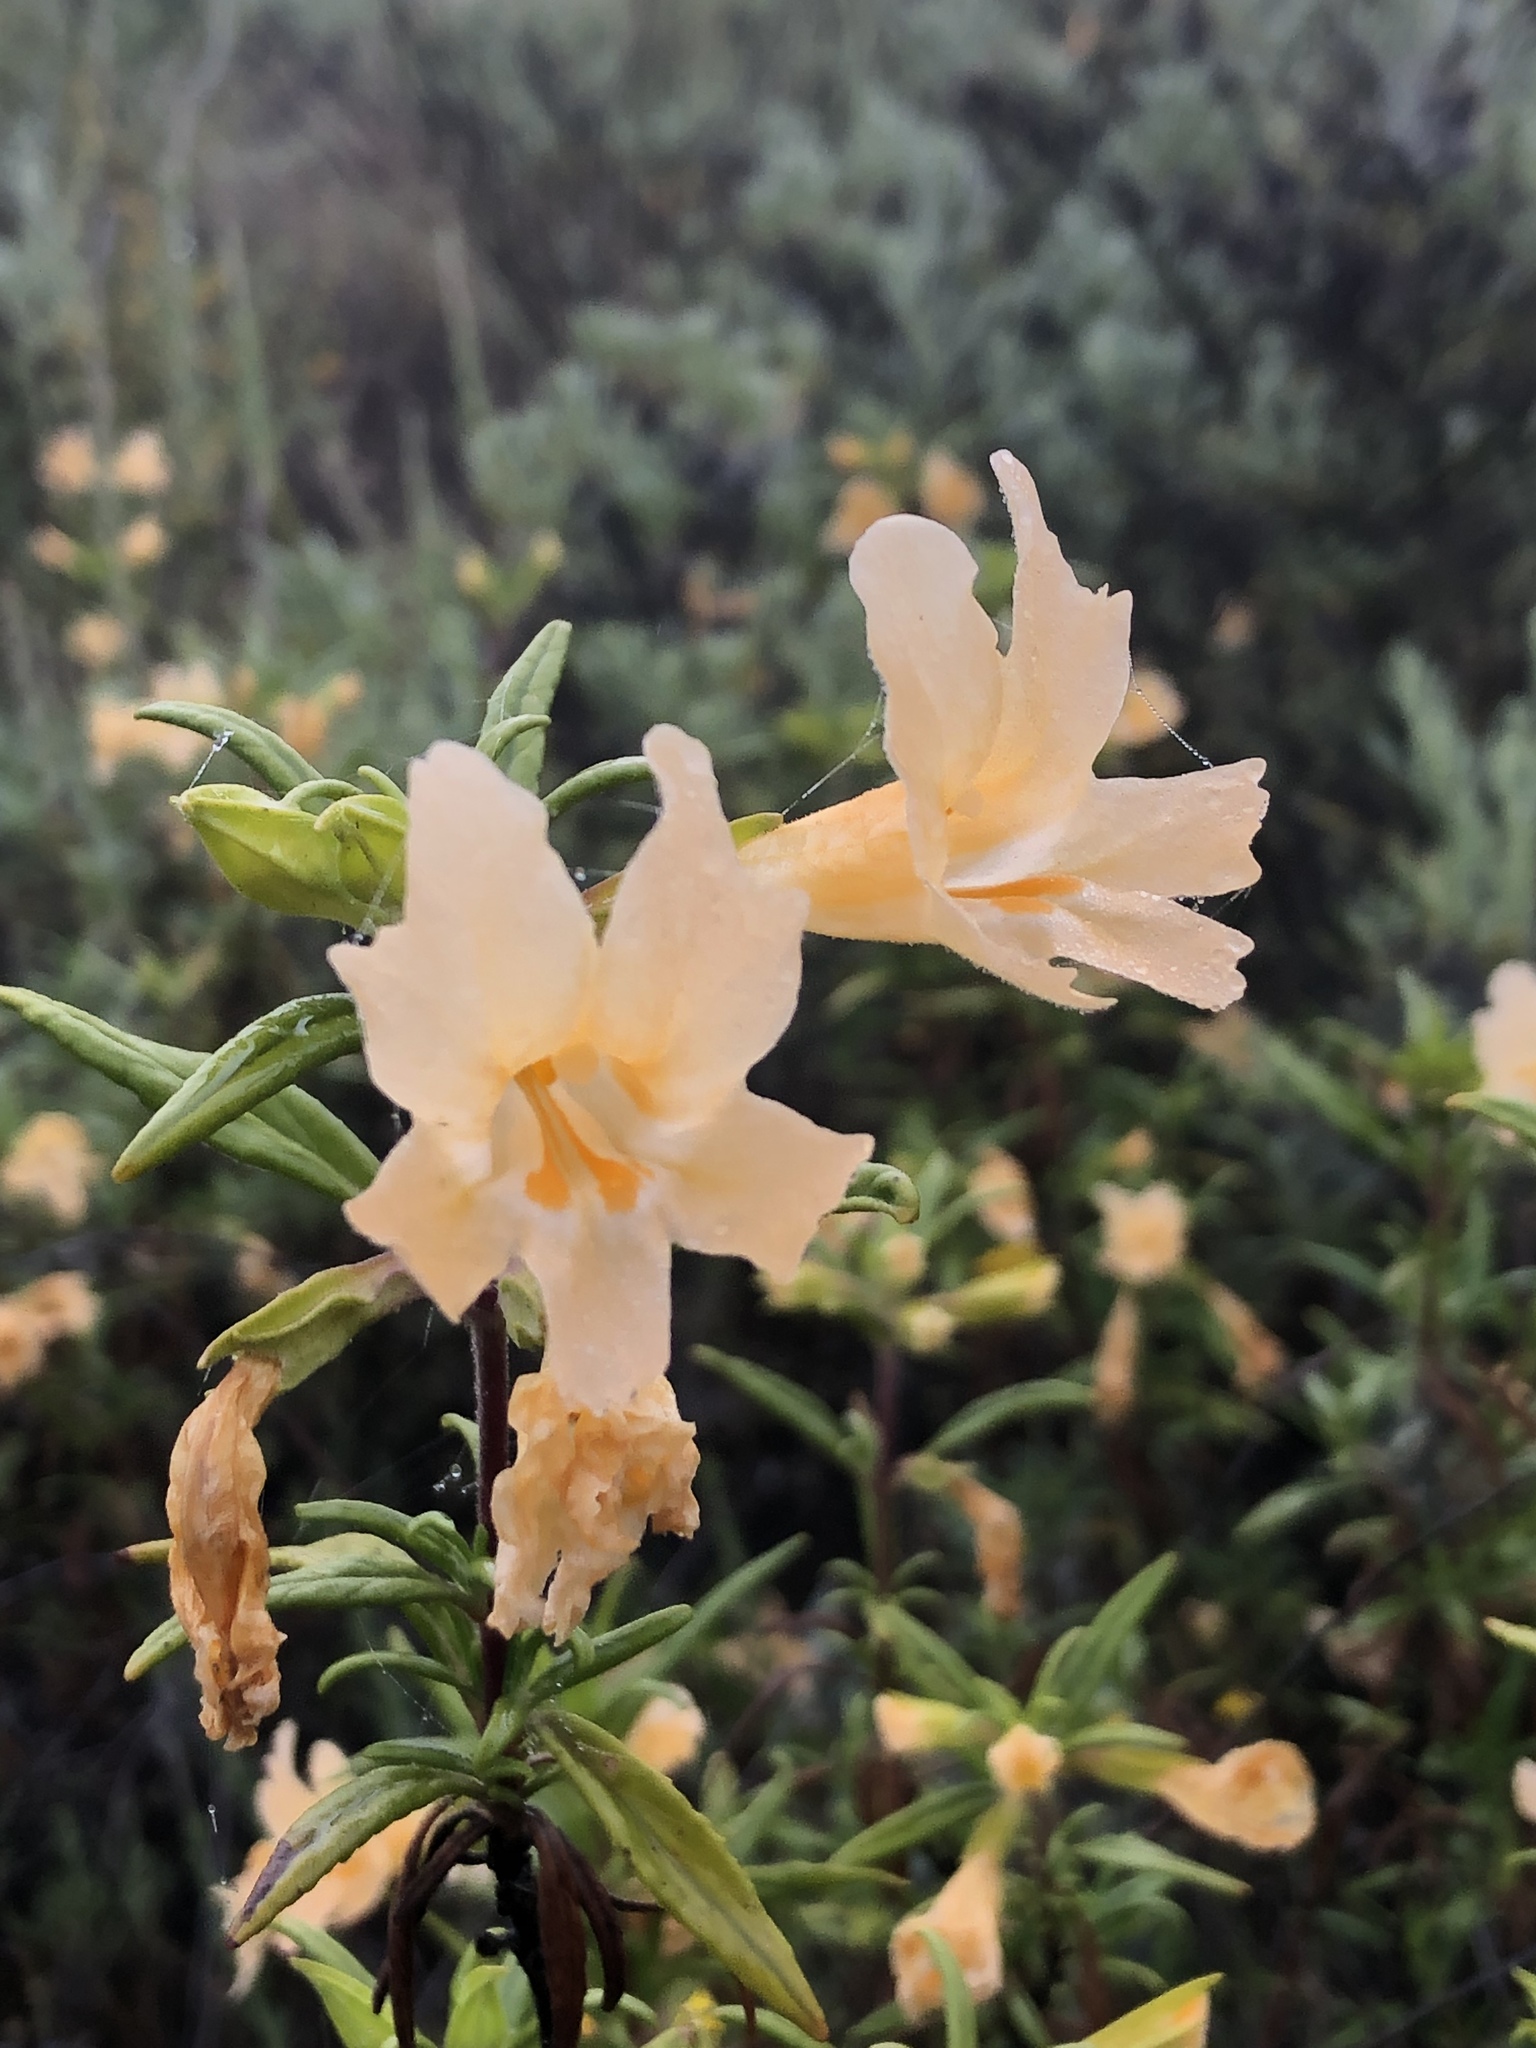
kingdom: Plantae
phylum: Tracheophyta
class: Magnoliopsida
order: Lamiales
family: Phrymaceae
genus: Diplacus
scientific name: Diplacus aurantiacus
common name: Bush monkey-flower
